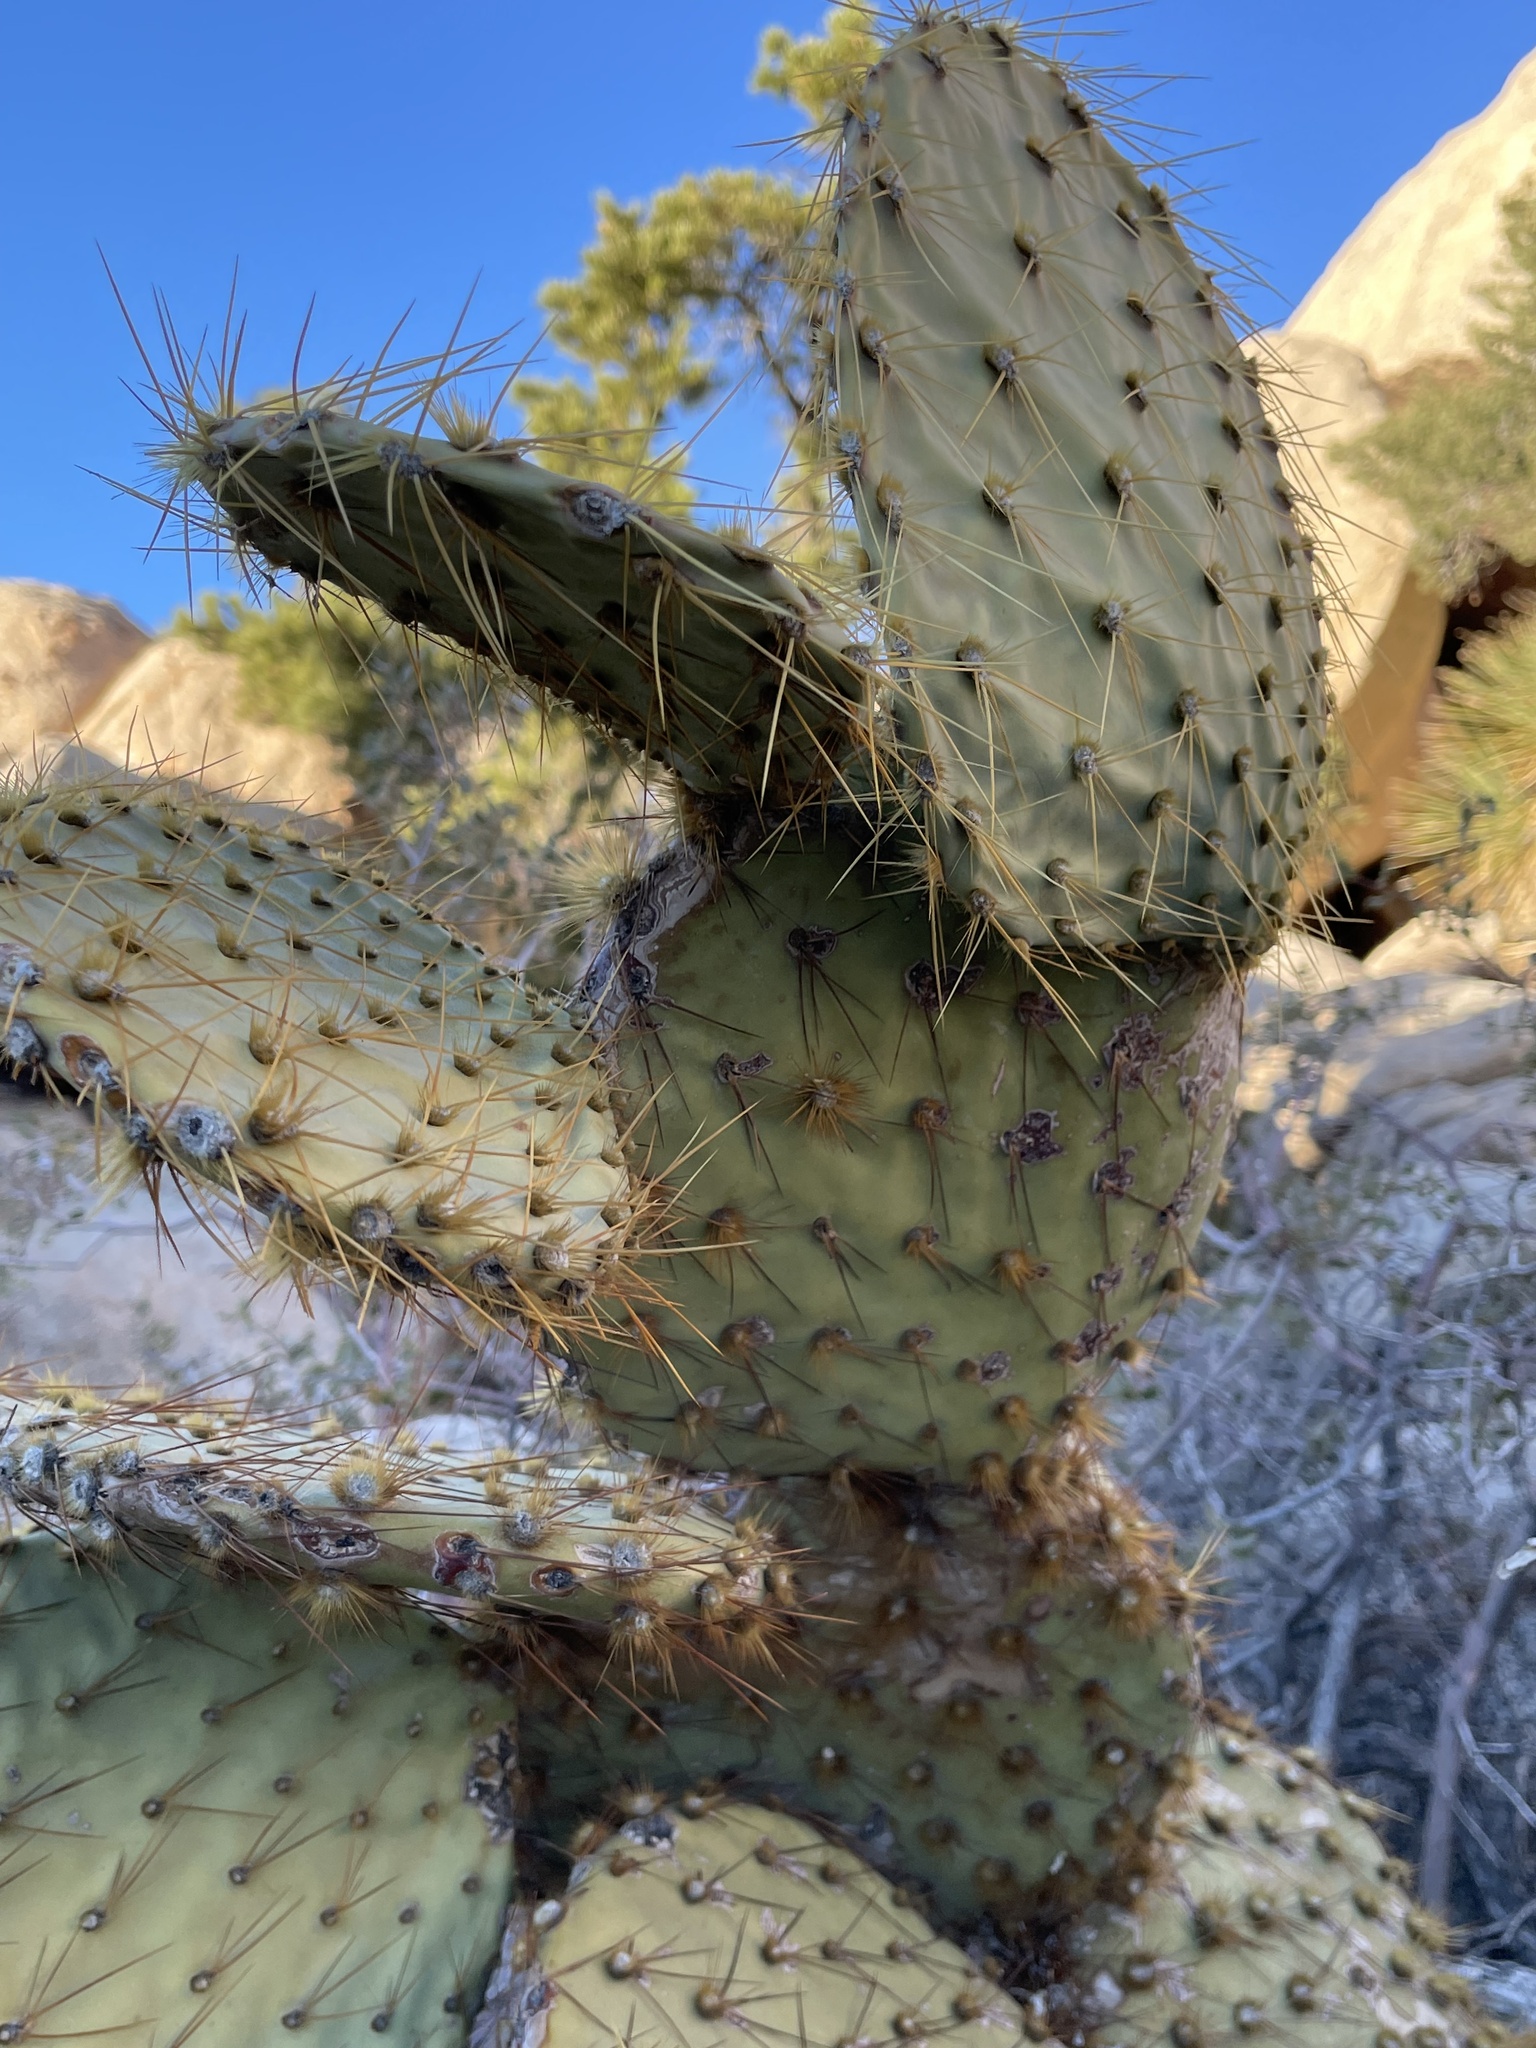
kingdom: Plantae
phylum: Tracheophyta
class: Magnoliopsida
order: Caryophyllales
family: Cactaceae
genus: Opuntia
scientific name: Opuntia chlorotica
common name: Dollar-joint prickly-pear
